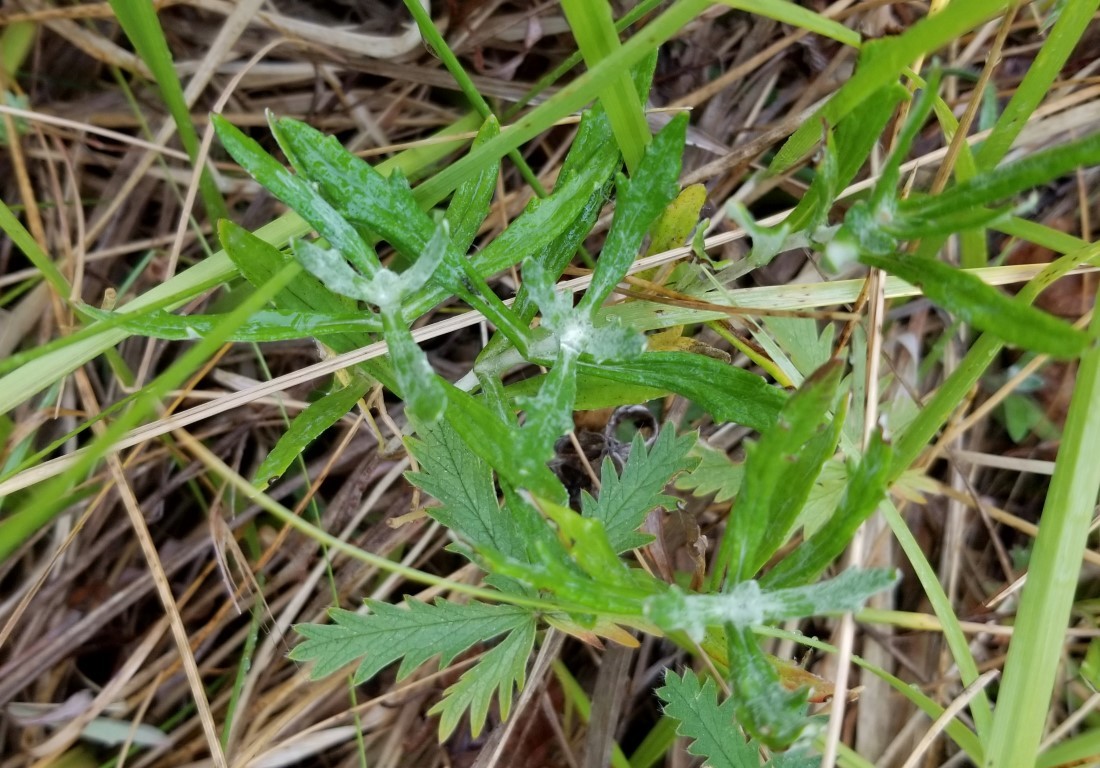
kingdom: Plantae
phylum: Tracheophyta
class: Magnoliopsida
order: Asterales
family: Asteraceae
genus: Eriophyllum
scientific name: Eriophyllum lanatum
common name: Common woolly-sunflower
